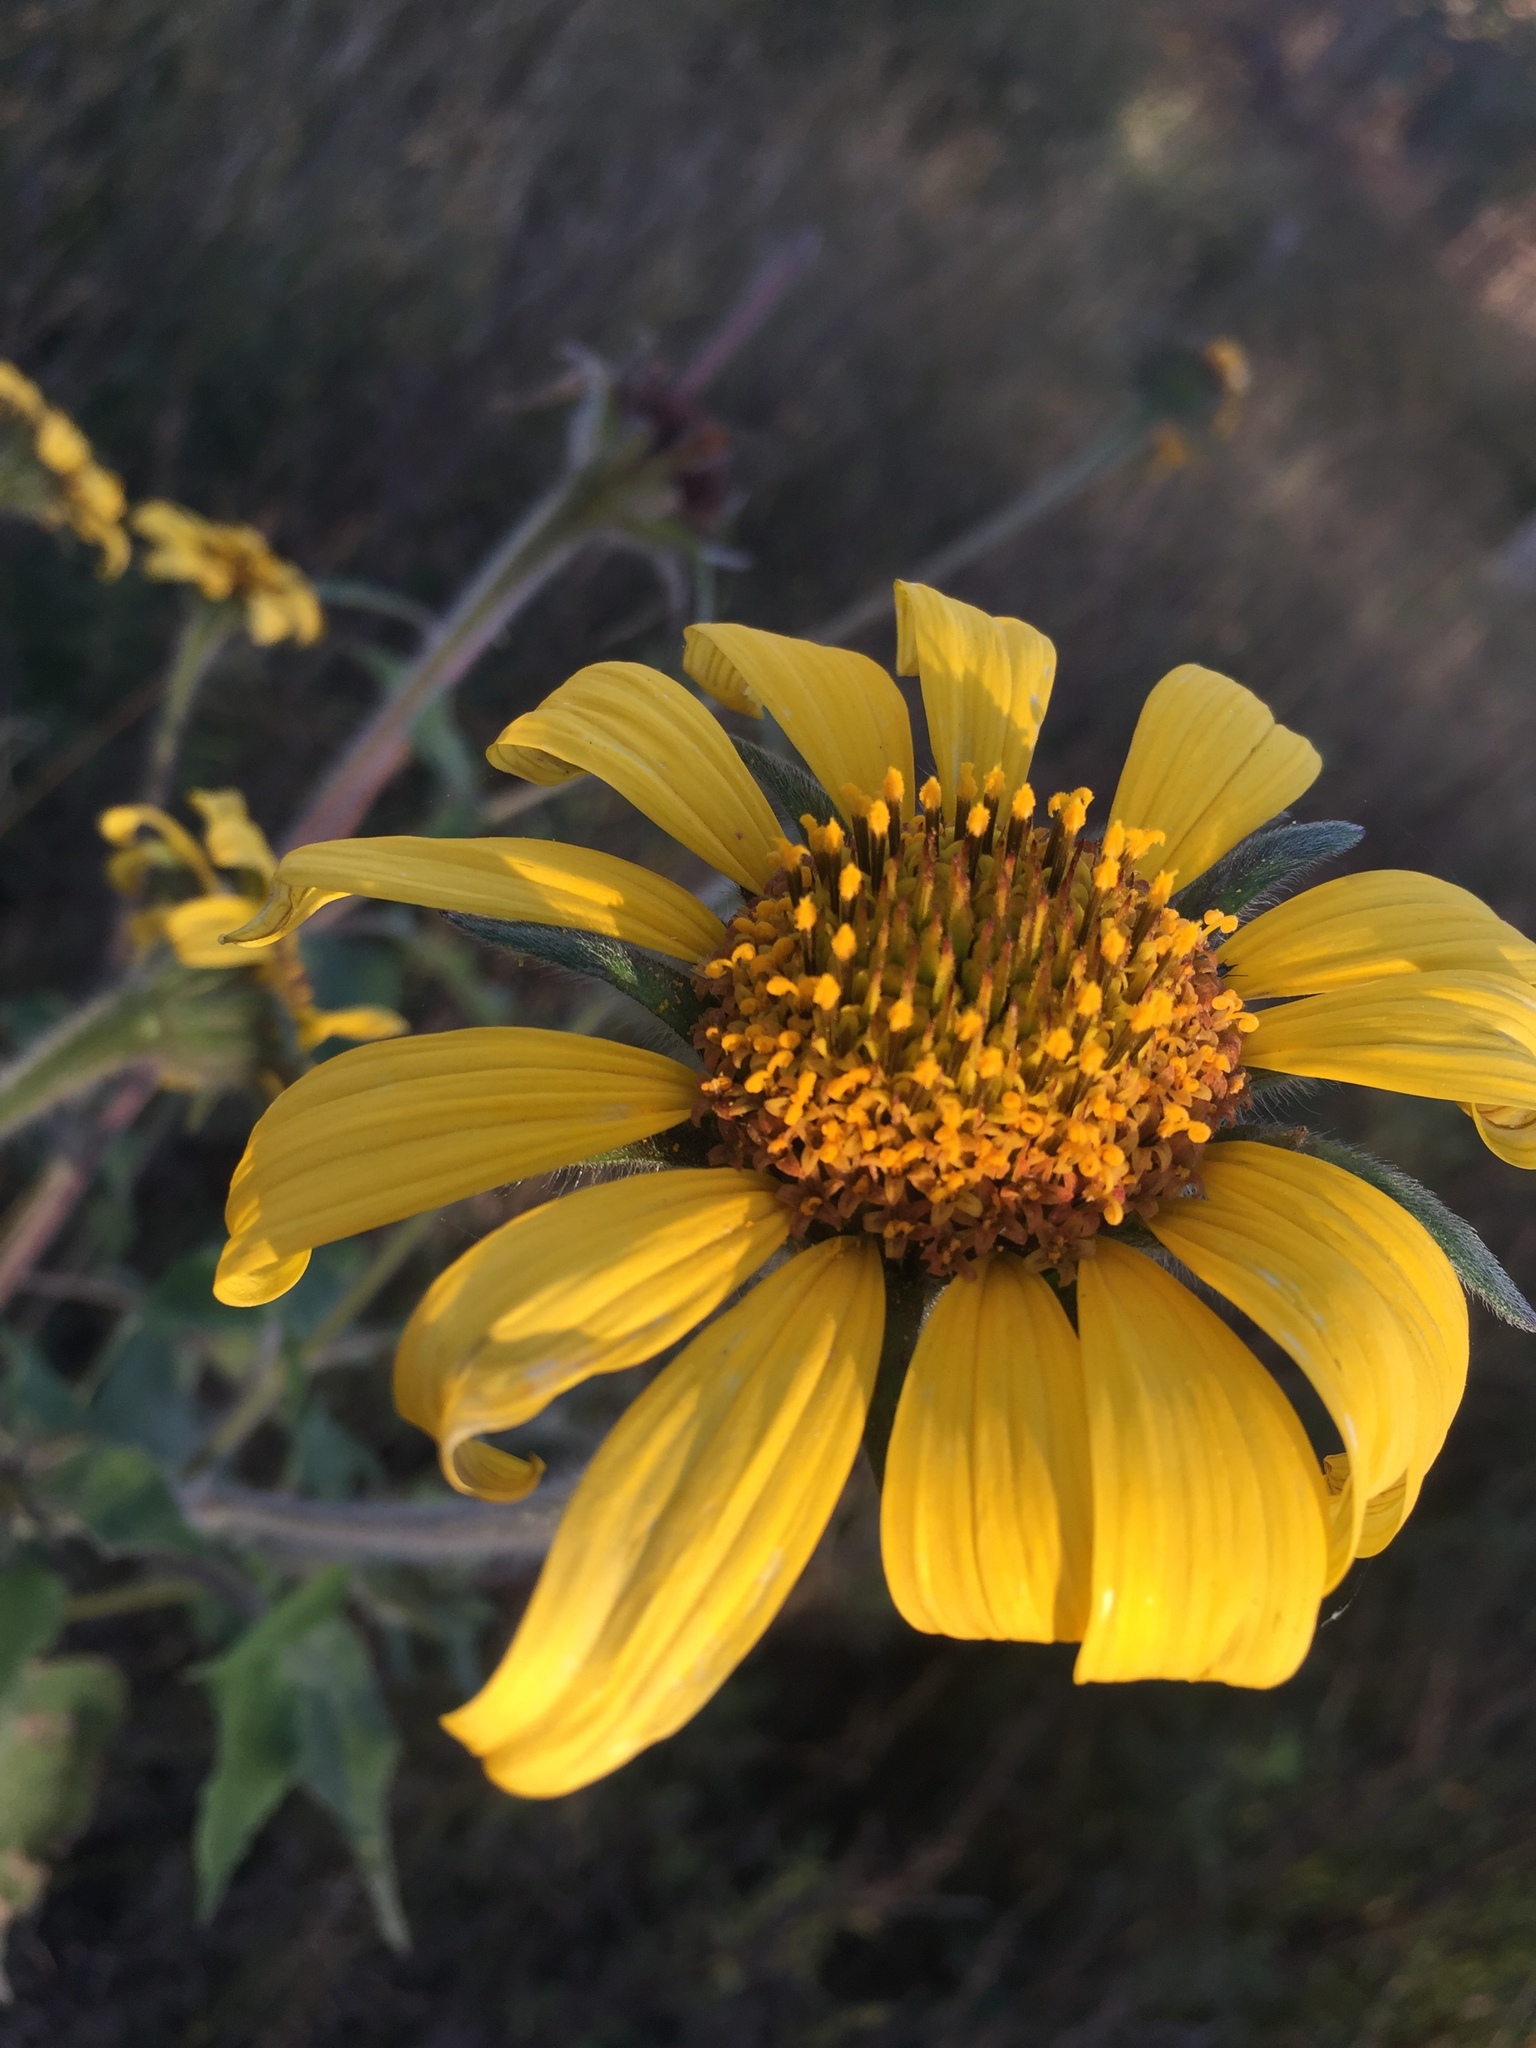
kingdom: Plantae
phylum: Tracheophyta
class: Magnoliopsida
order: Asterales
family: Asteraceae
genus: Tithonia
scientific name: Tithonia tubaeformis
